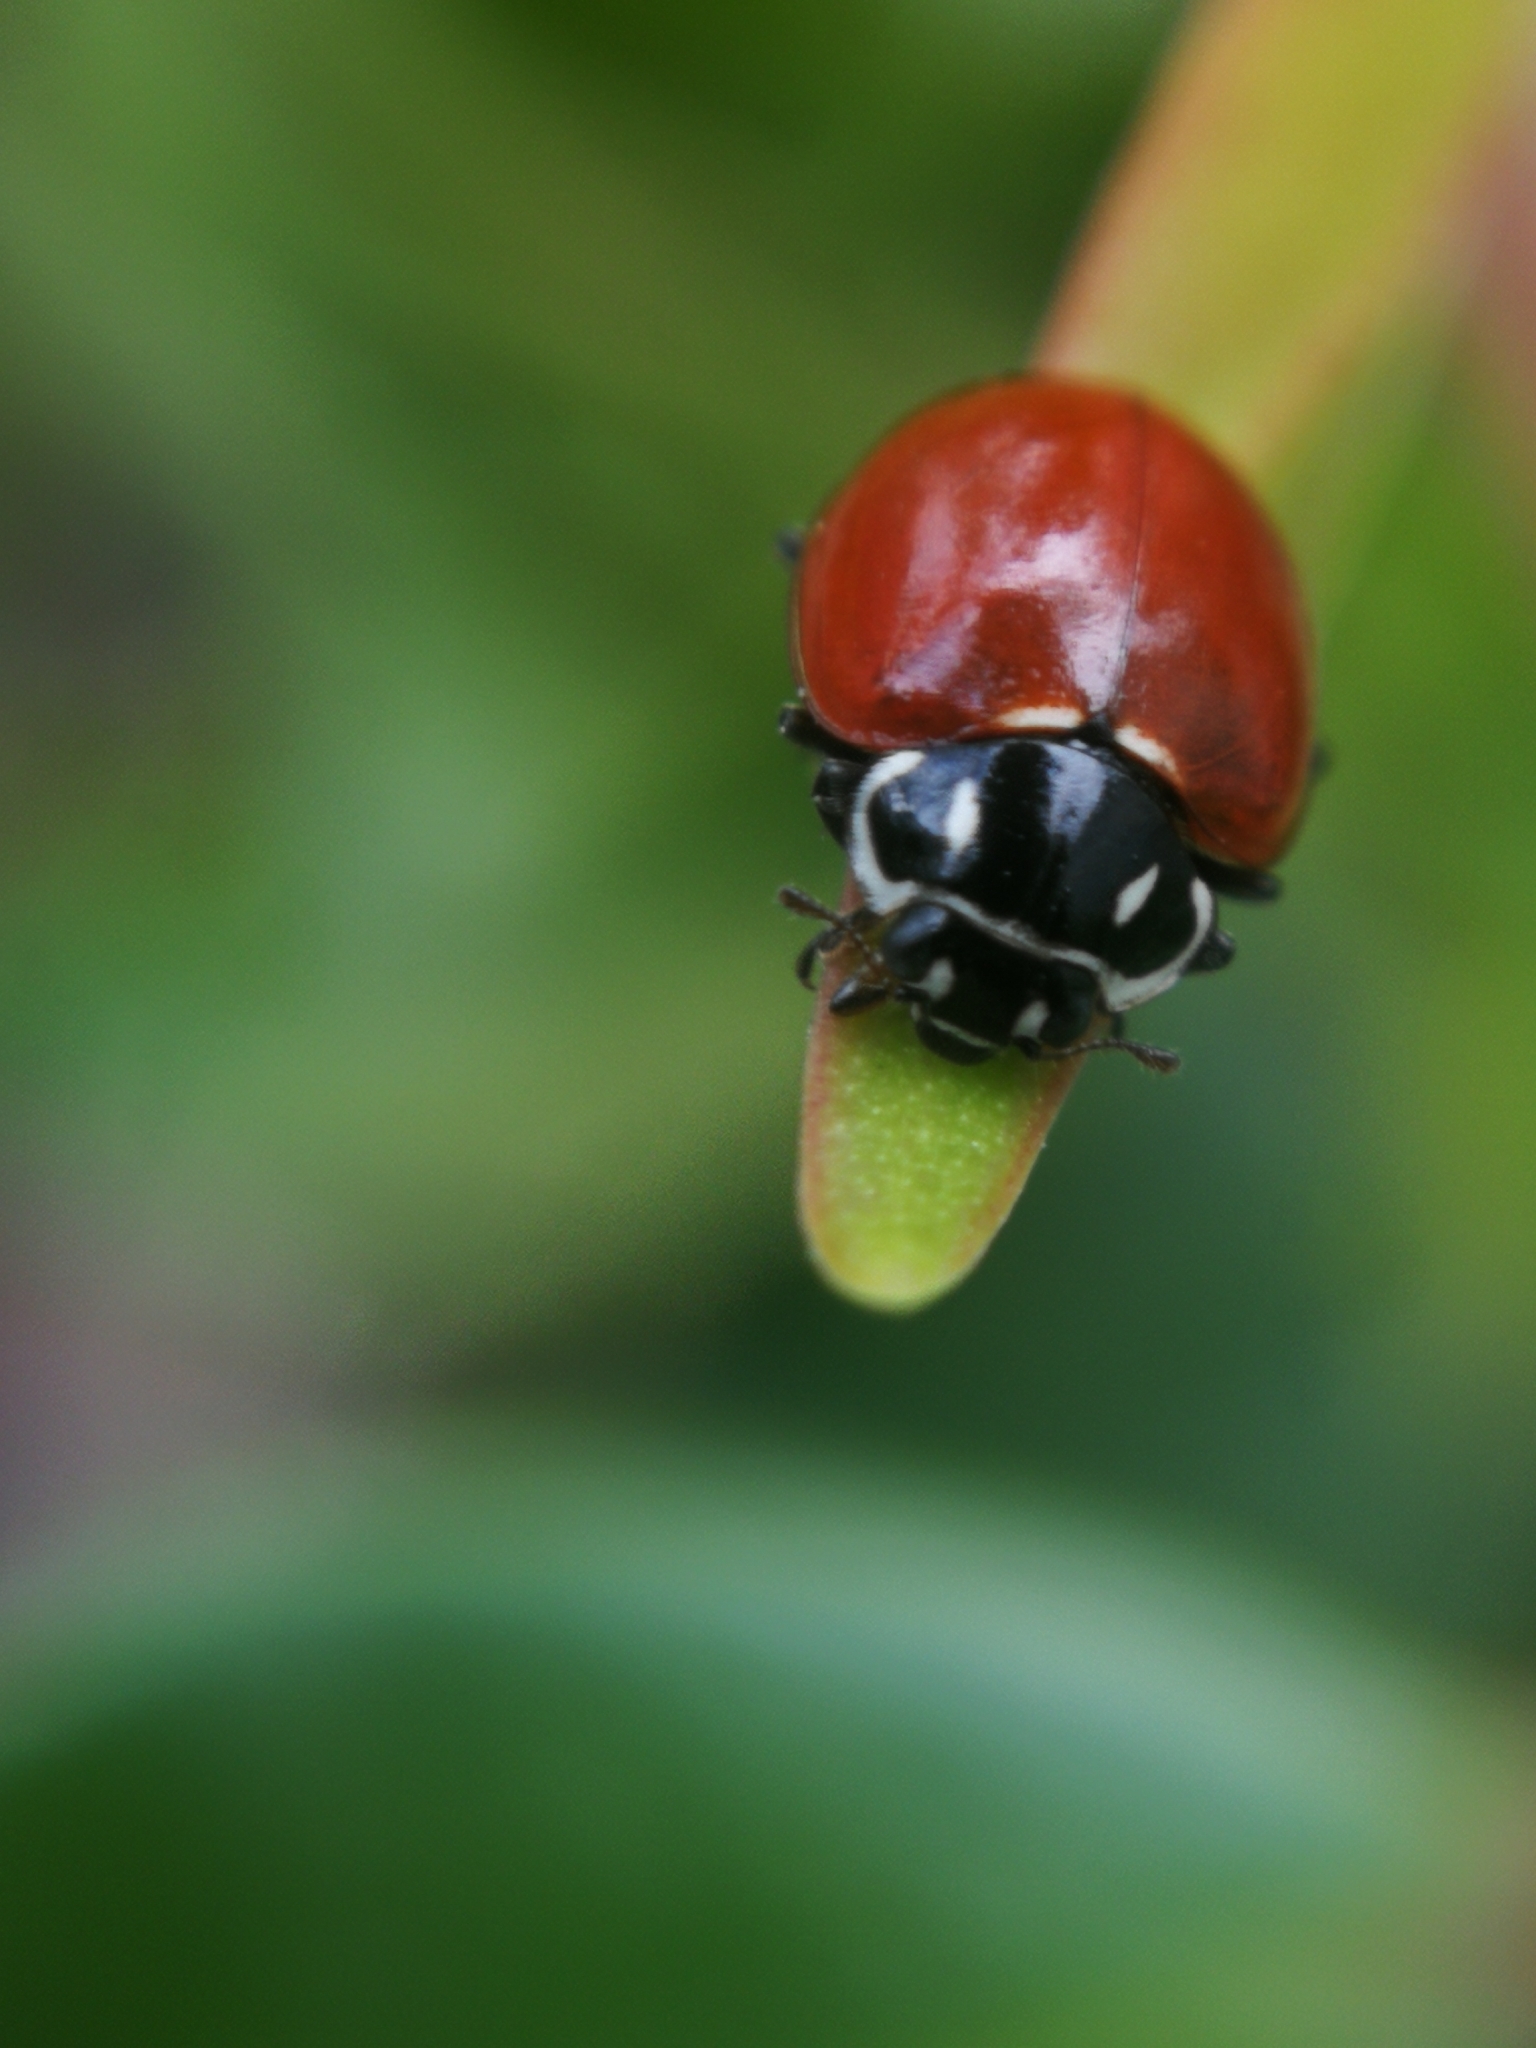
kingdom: Animalia
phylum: Arthropoda
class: Insecta
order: Coleoptera
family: Coccinellidae
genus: Cycloneda
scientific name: Cycloneda emarginata
